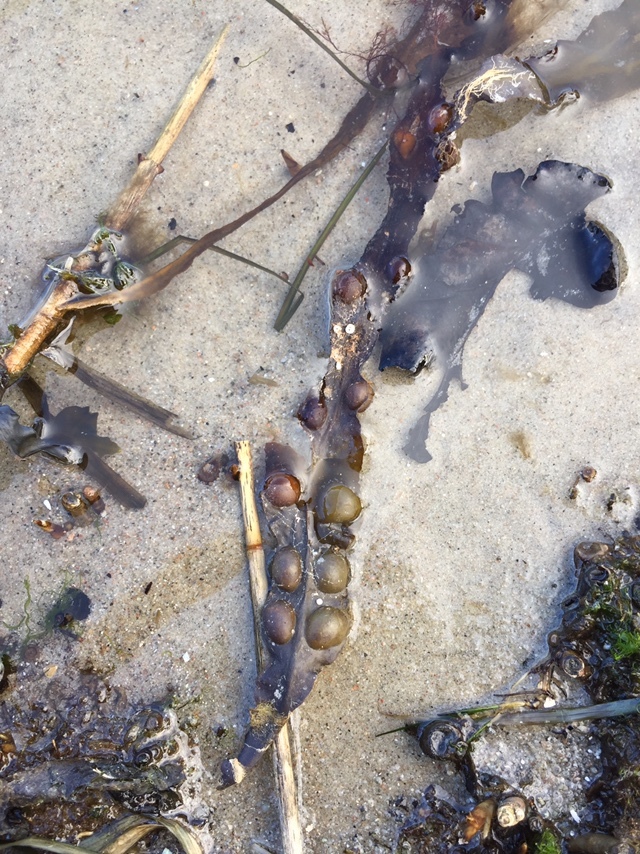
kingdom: Chromista
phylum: Ochrophyta
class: Phaeophyceae
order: Fucales
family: Fucaceae
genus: Fucus
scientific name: Fucus vesiculosus
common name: Bladder wrack
